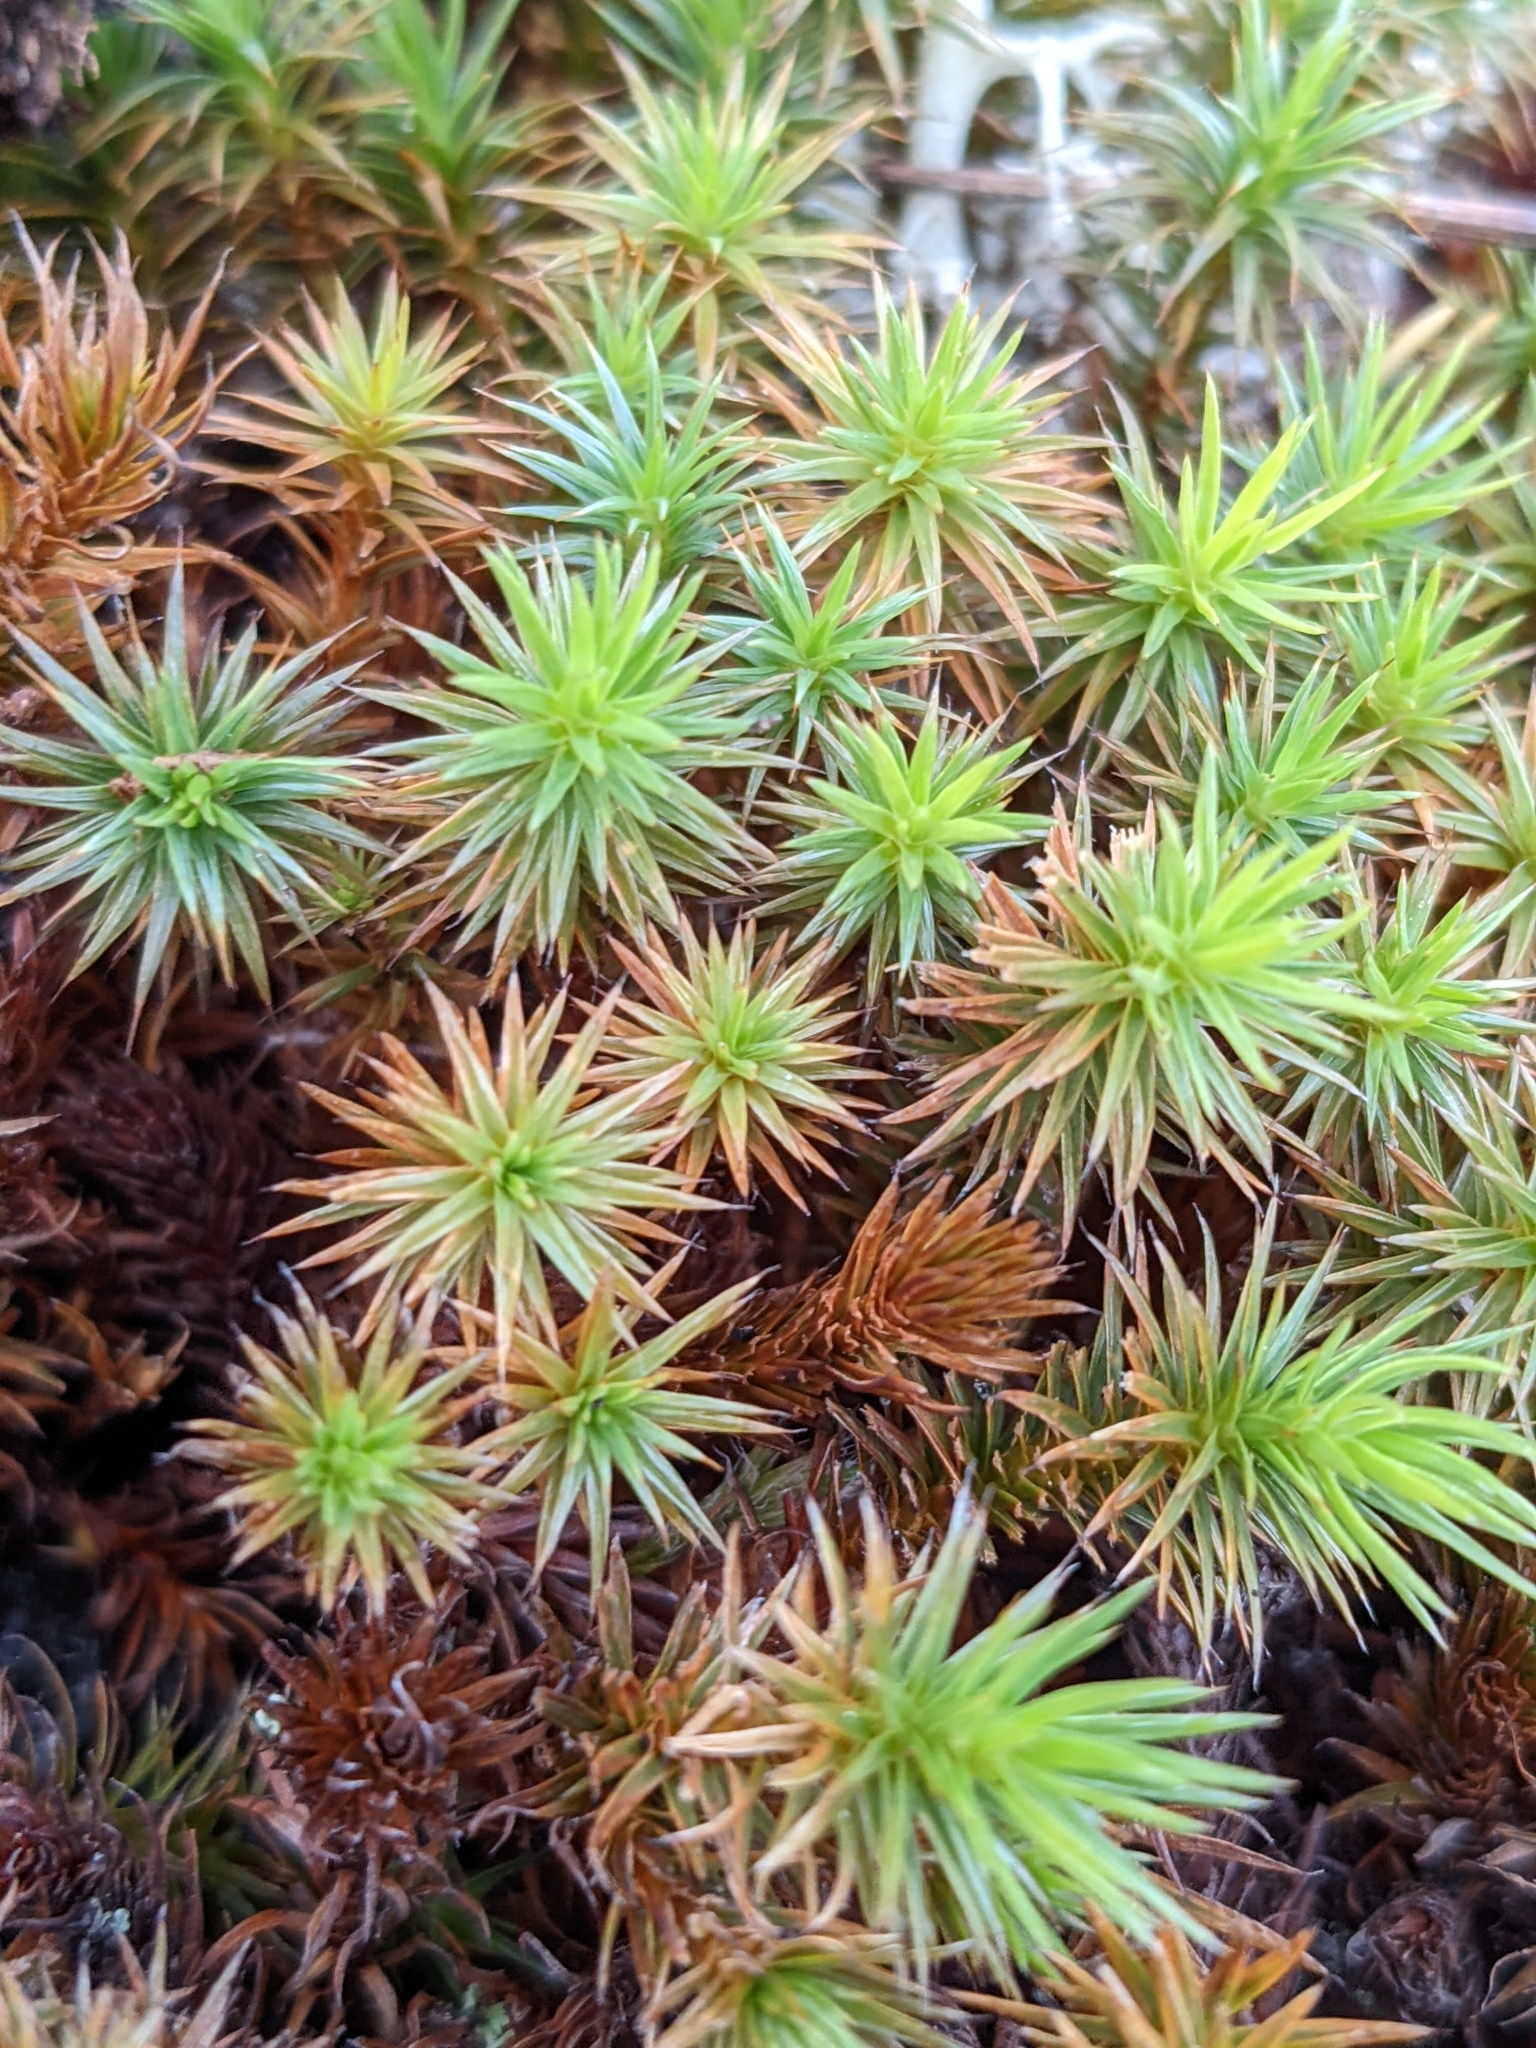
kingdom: Plantae
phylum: Bryophyta
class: Polytrichopsida
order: Polytrichales
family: Polytrichaceae
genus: Polytrichum
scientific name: Polytrichum juniperinum
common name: Juniper haircap moss
